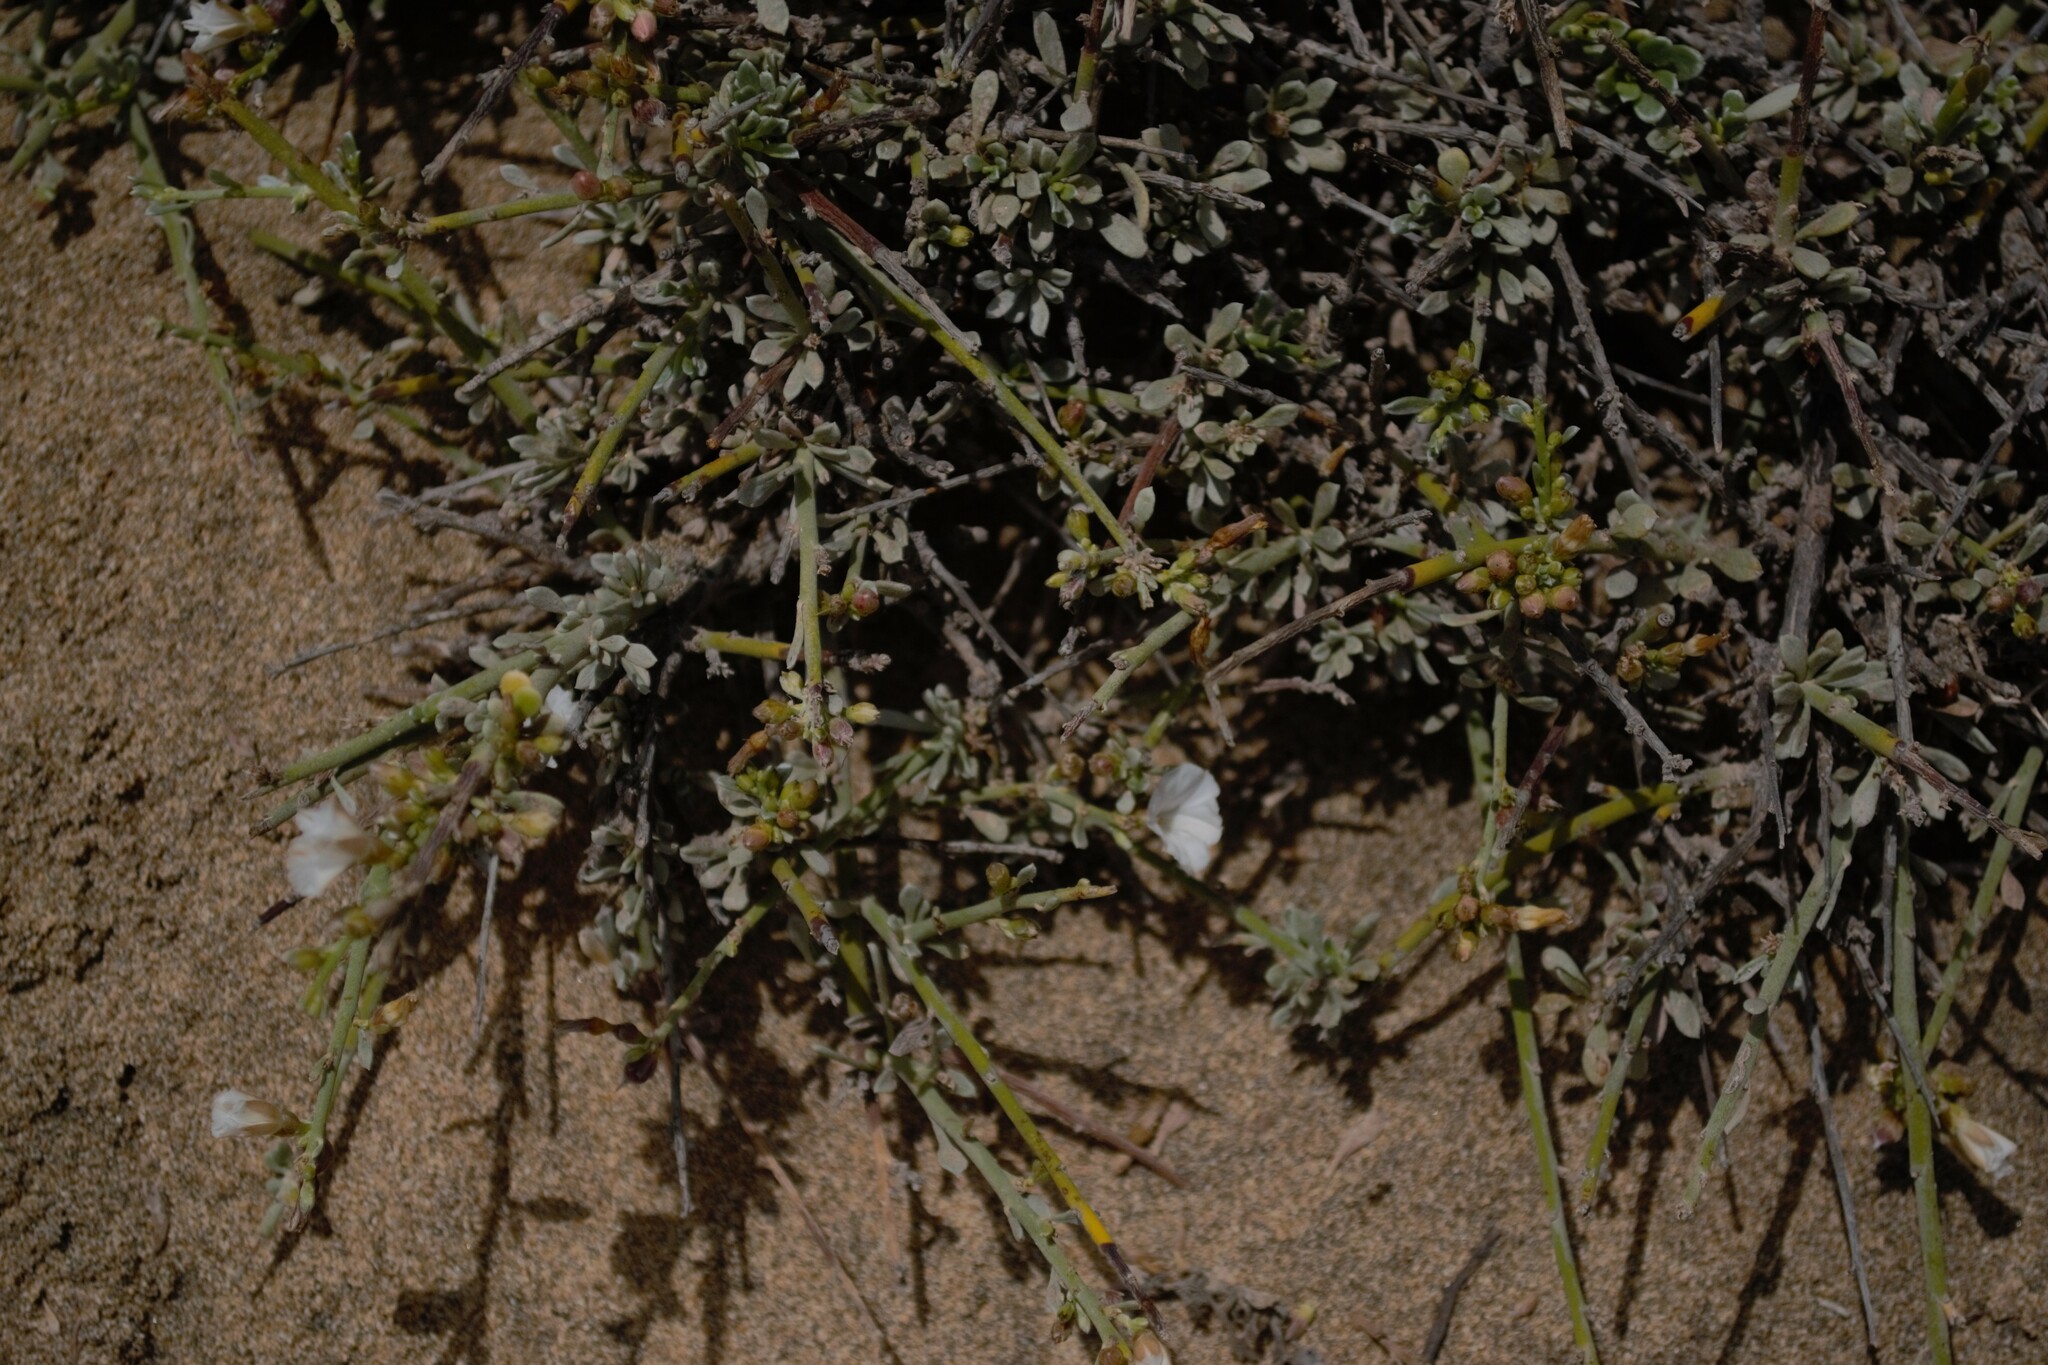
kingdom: Plantae
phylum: Tracheophyta
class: Magnoliopsida
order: Solanales
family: Convolvulaceae
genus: Convolvulus
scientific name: Convolvulus caput-medusae
